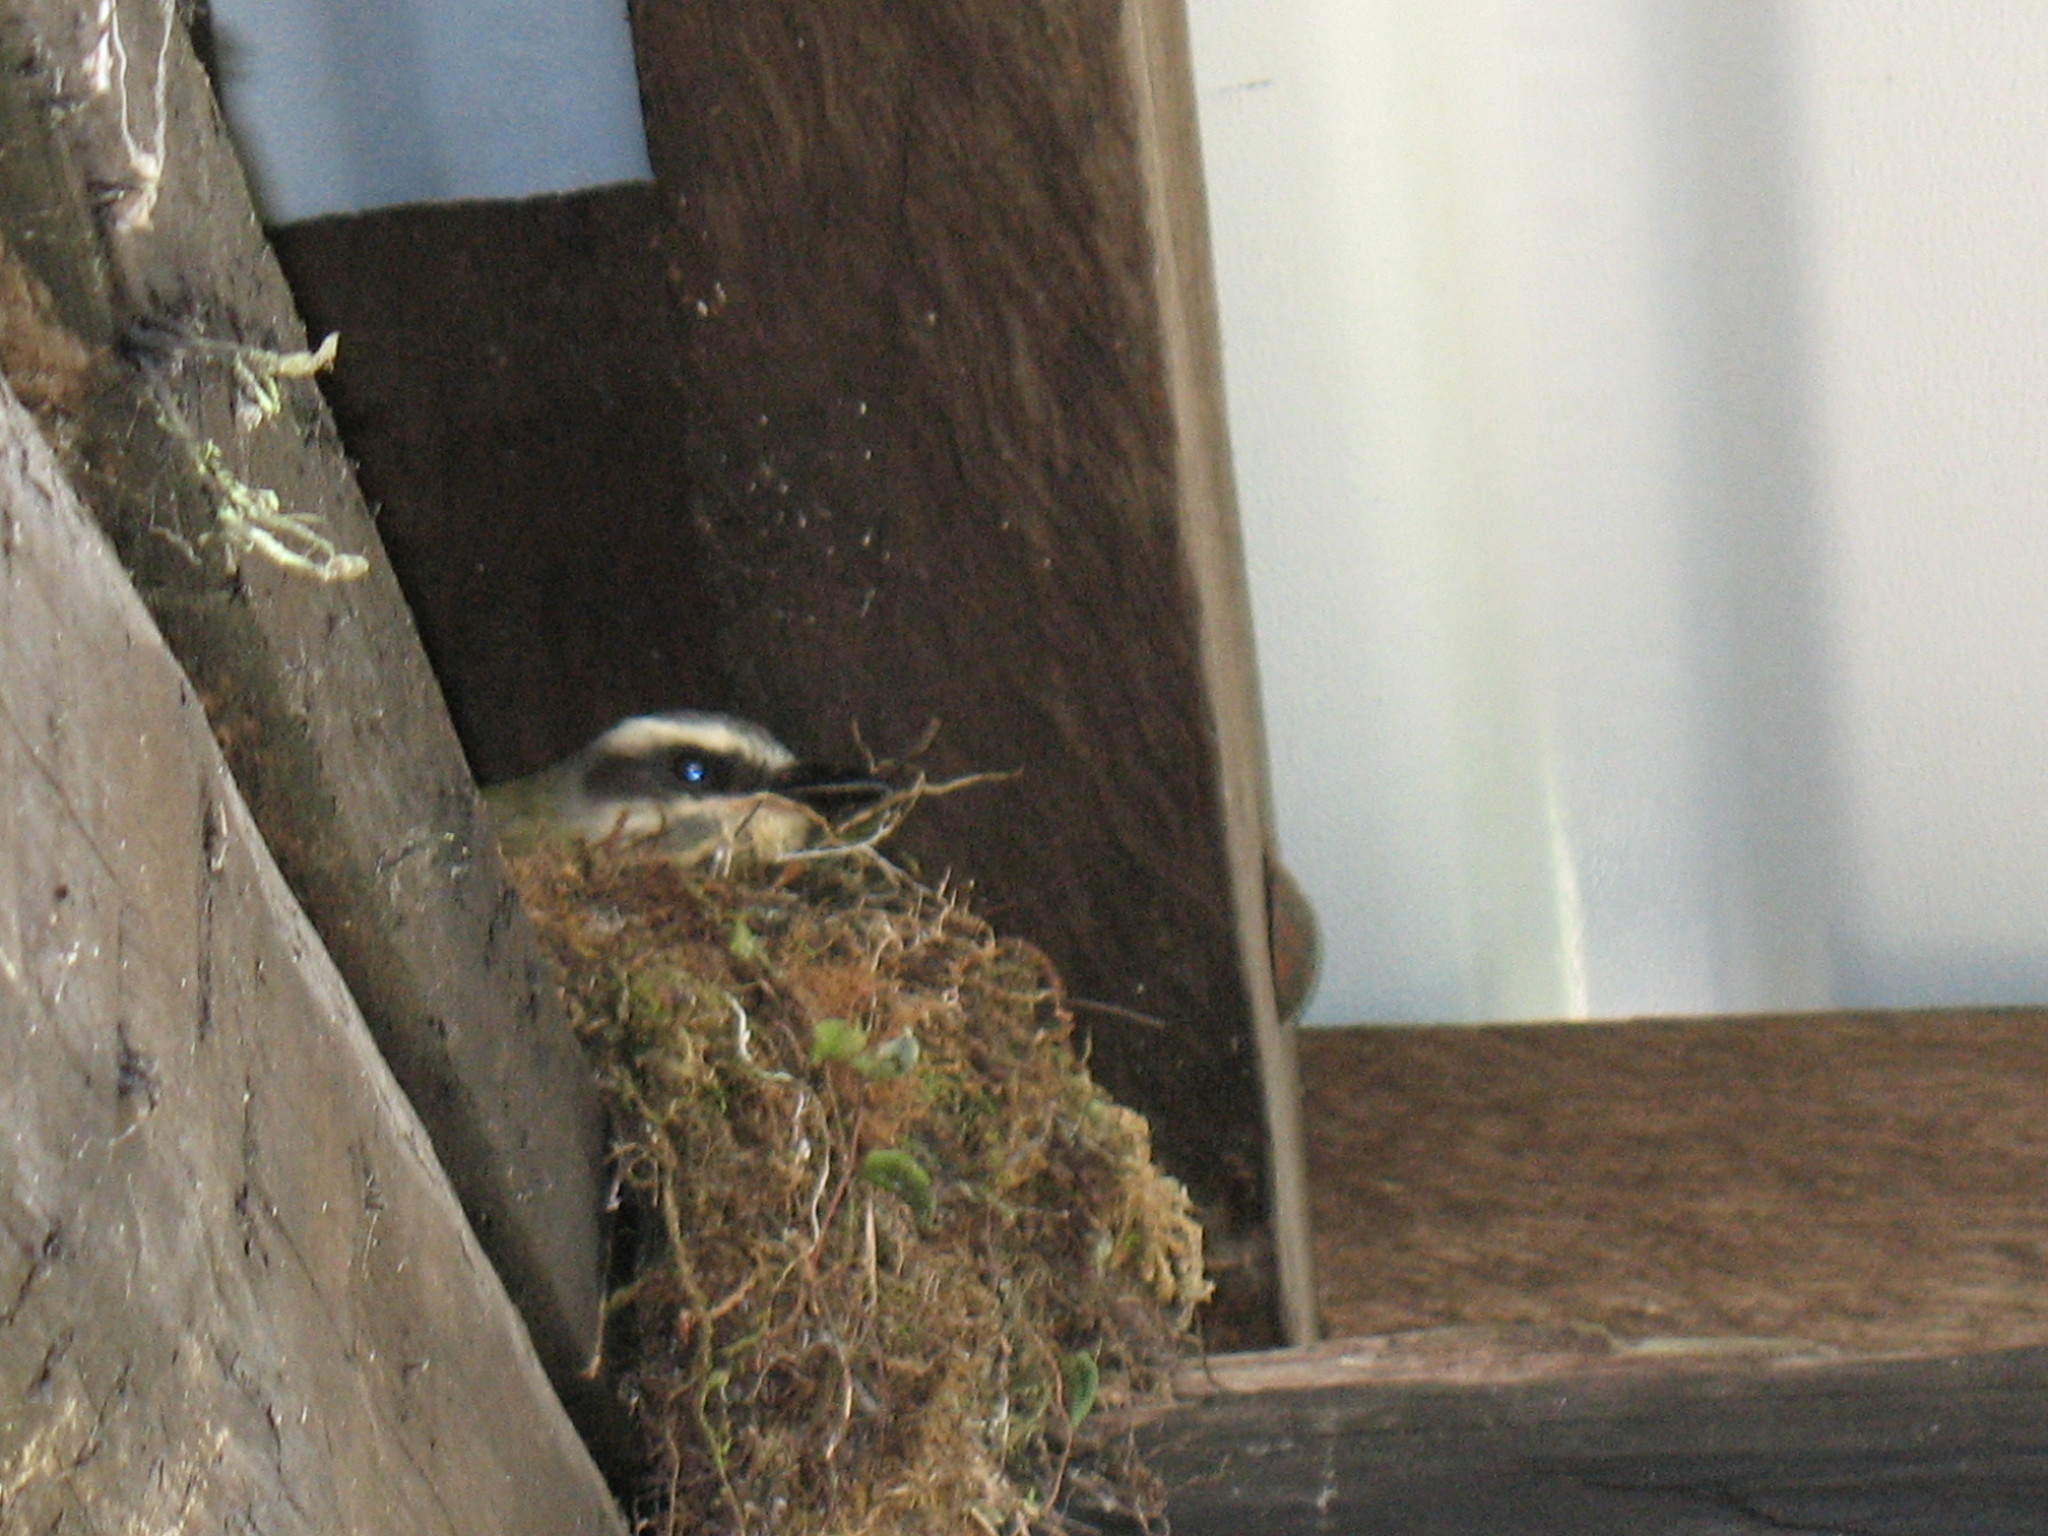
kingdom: Animalia
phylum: Chordata
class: Aves
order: Passeriformes
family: Tyrannidae
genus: Myiodynastes
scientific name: Myiodynastes hemichrysus
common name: Golden-bellied flycatcher
